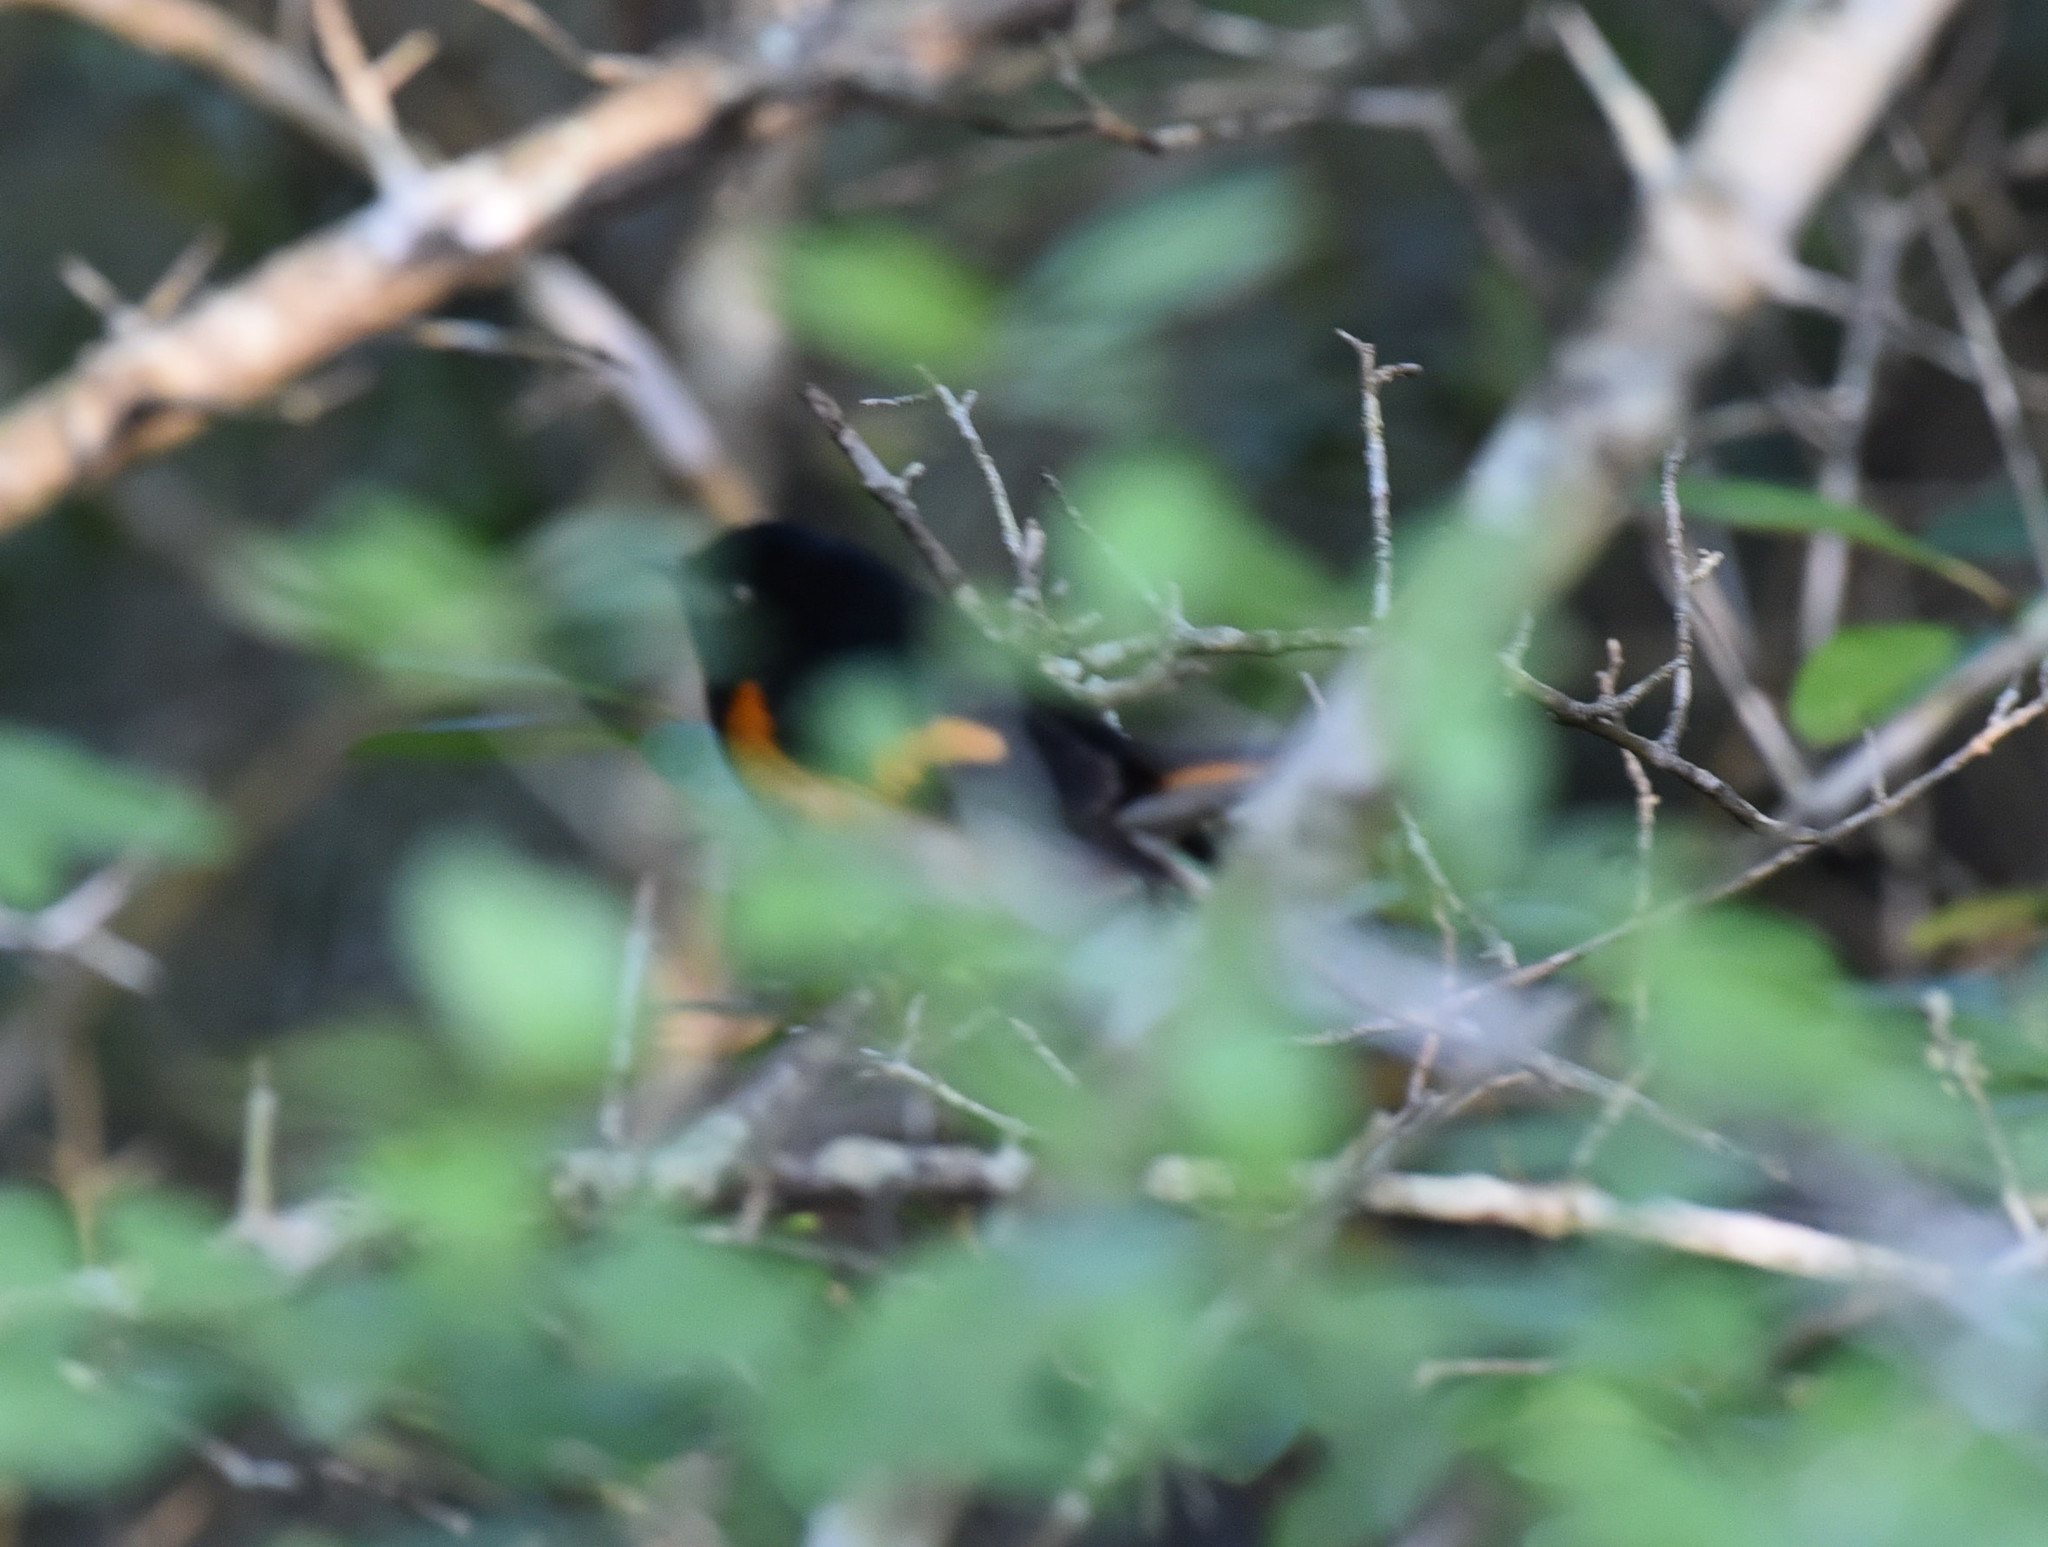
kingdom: Animalia
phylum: Chordata
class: Aves
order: Passeriformes
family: Parulidae
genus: Setophaga
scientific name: Setophaga ruticilla
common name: American redstart
